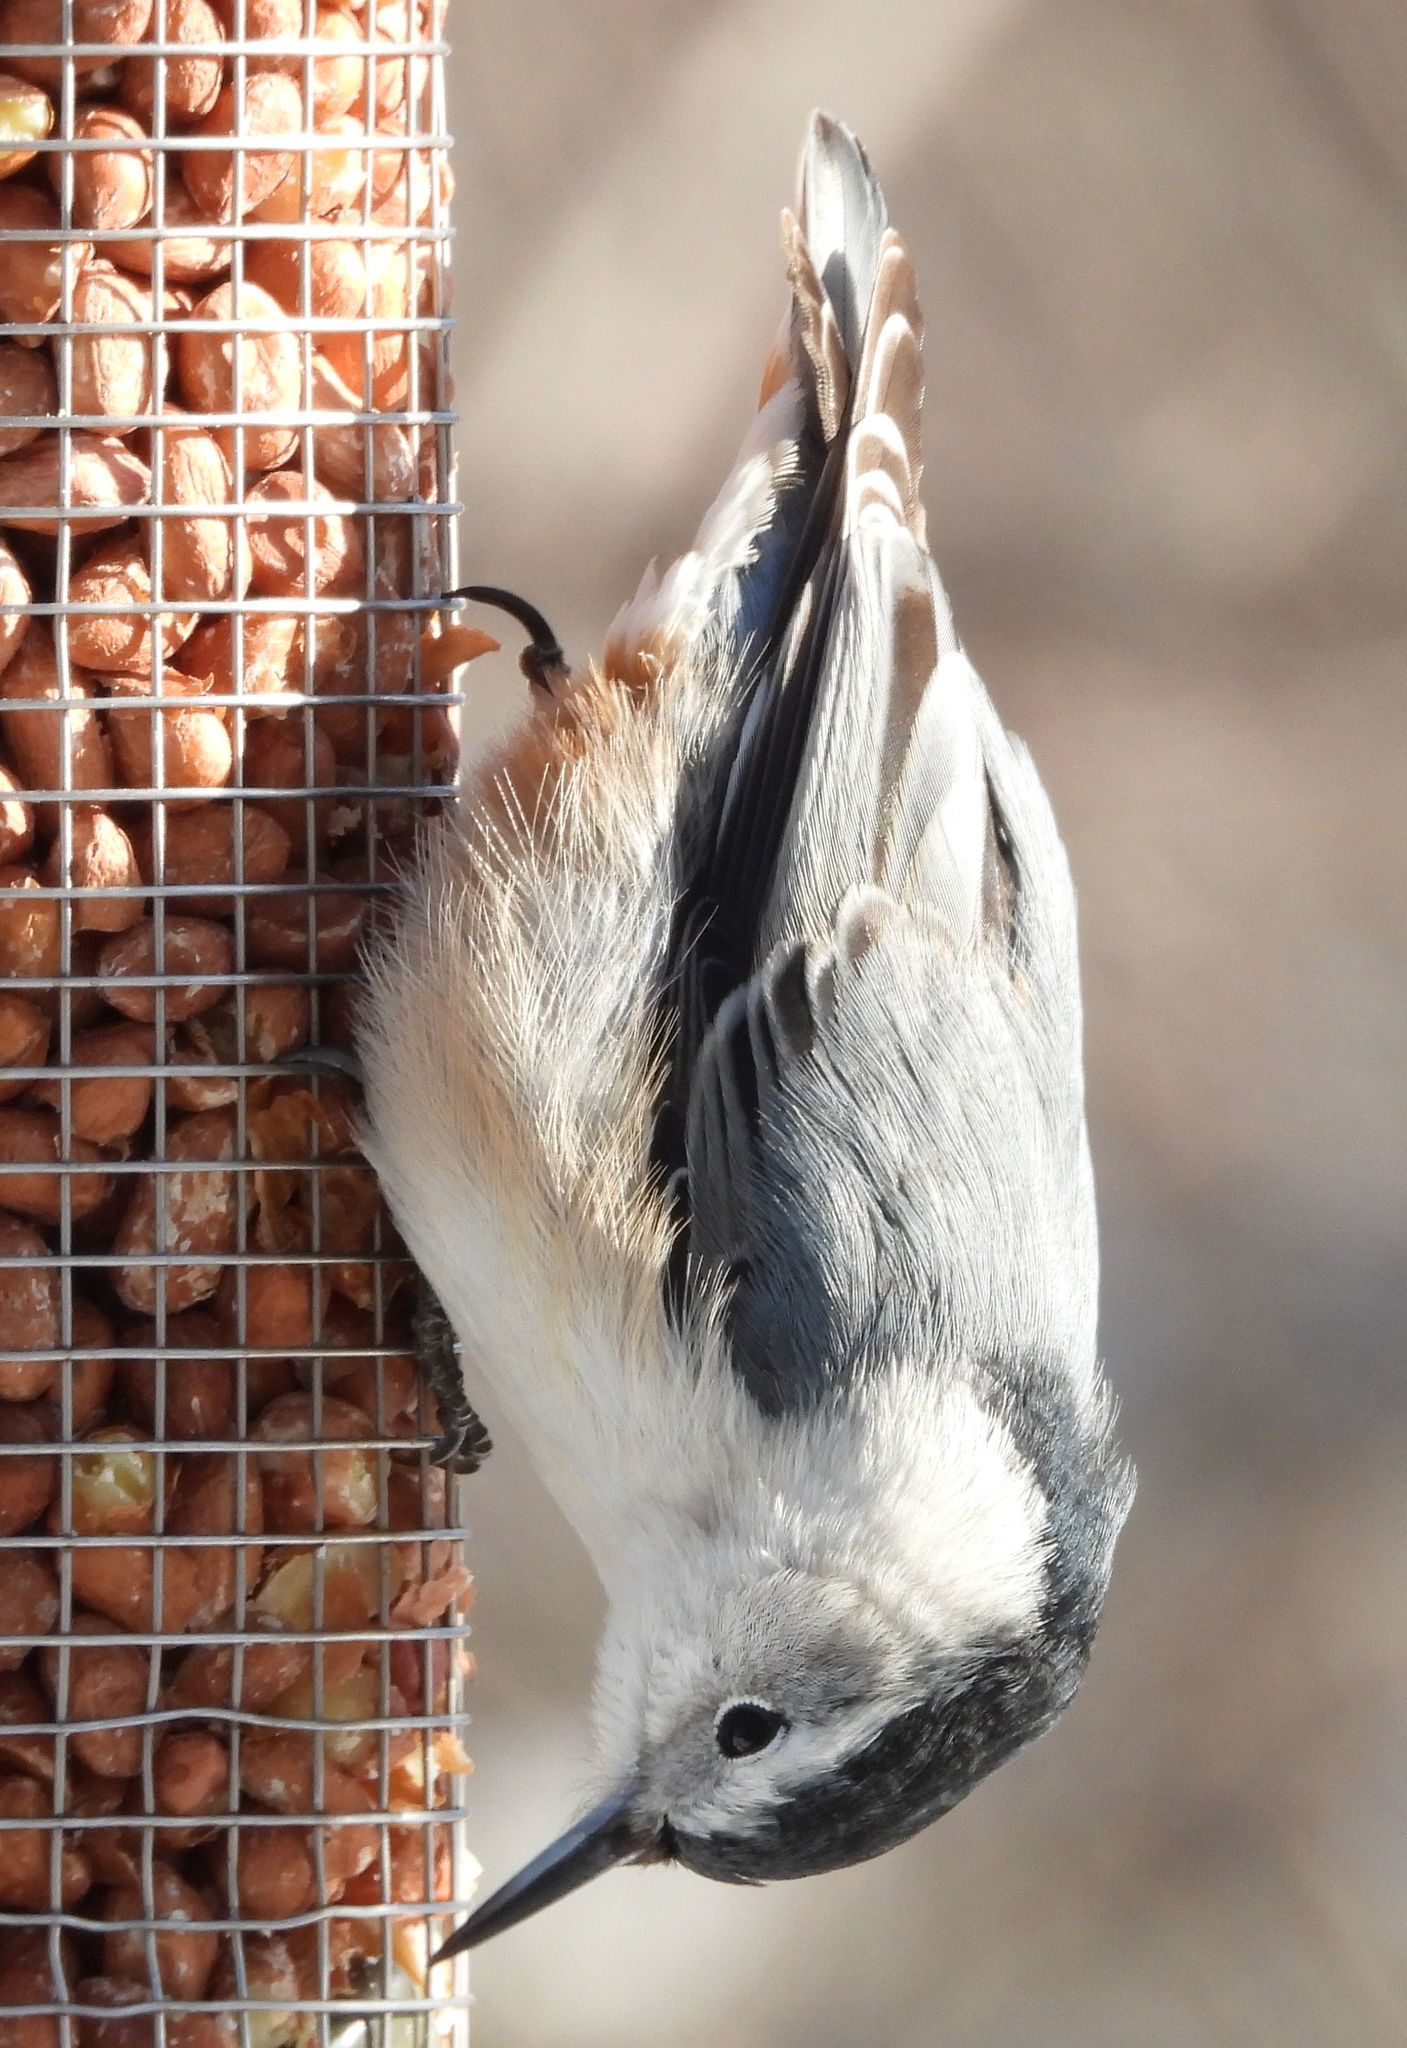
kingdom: Animalia
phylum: Chordata
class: Aves
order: Passeriformes
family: Sittidae
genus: Sitta
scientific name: Sitta carolinensis
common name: White-breasted nuthatch
